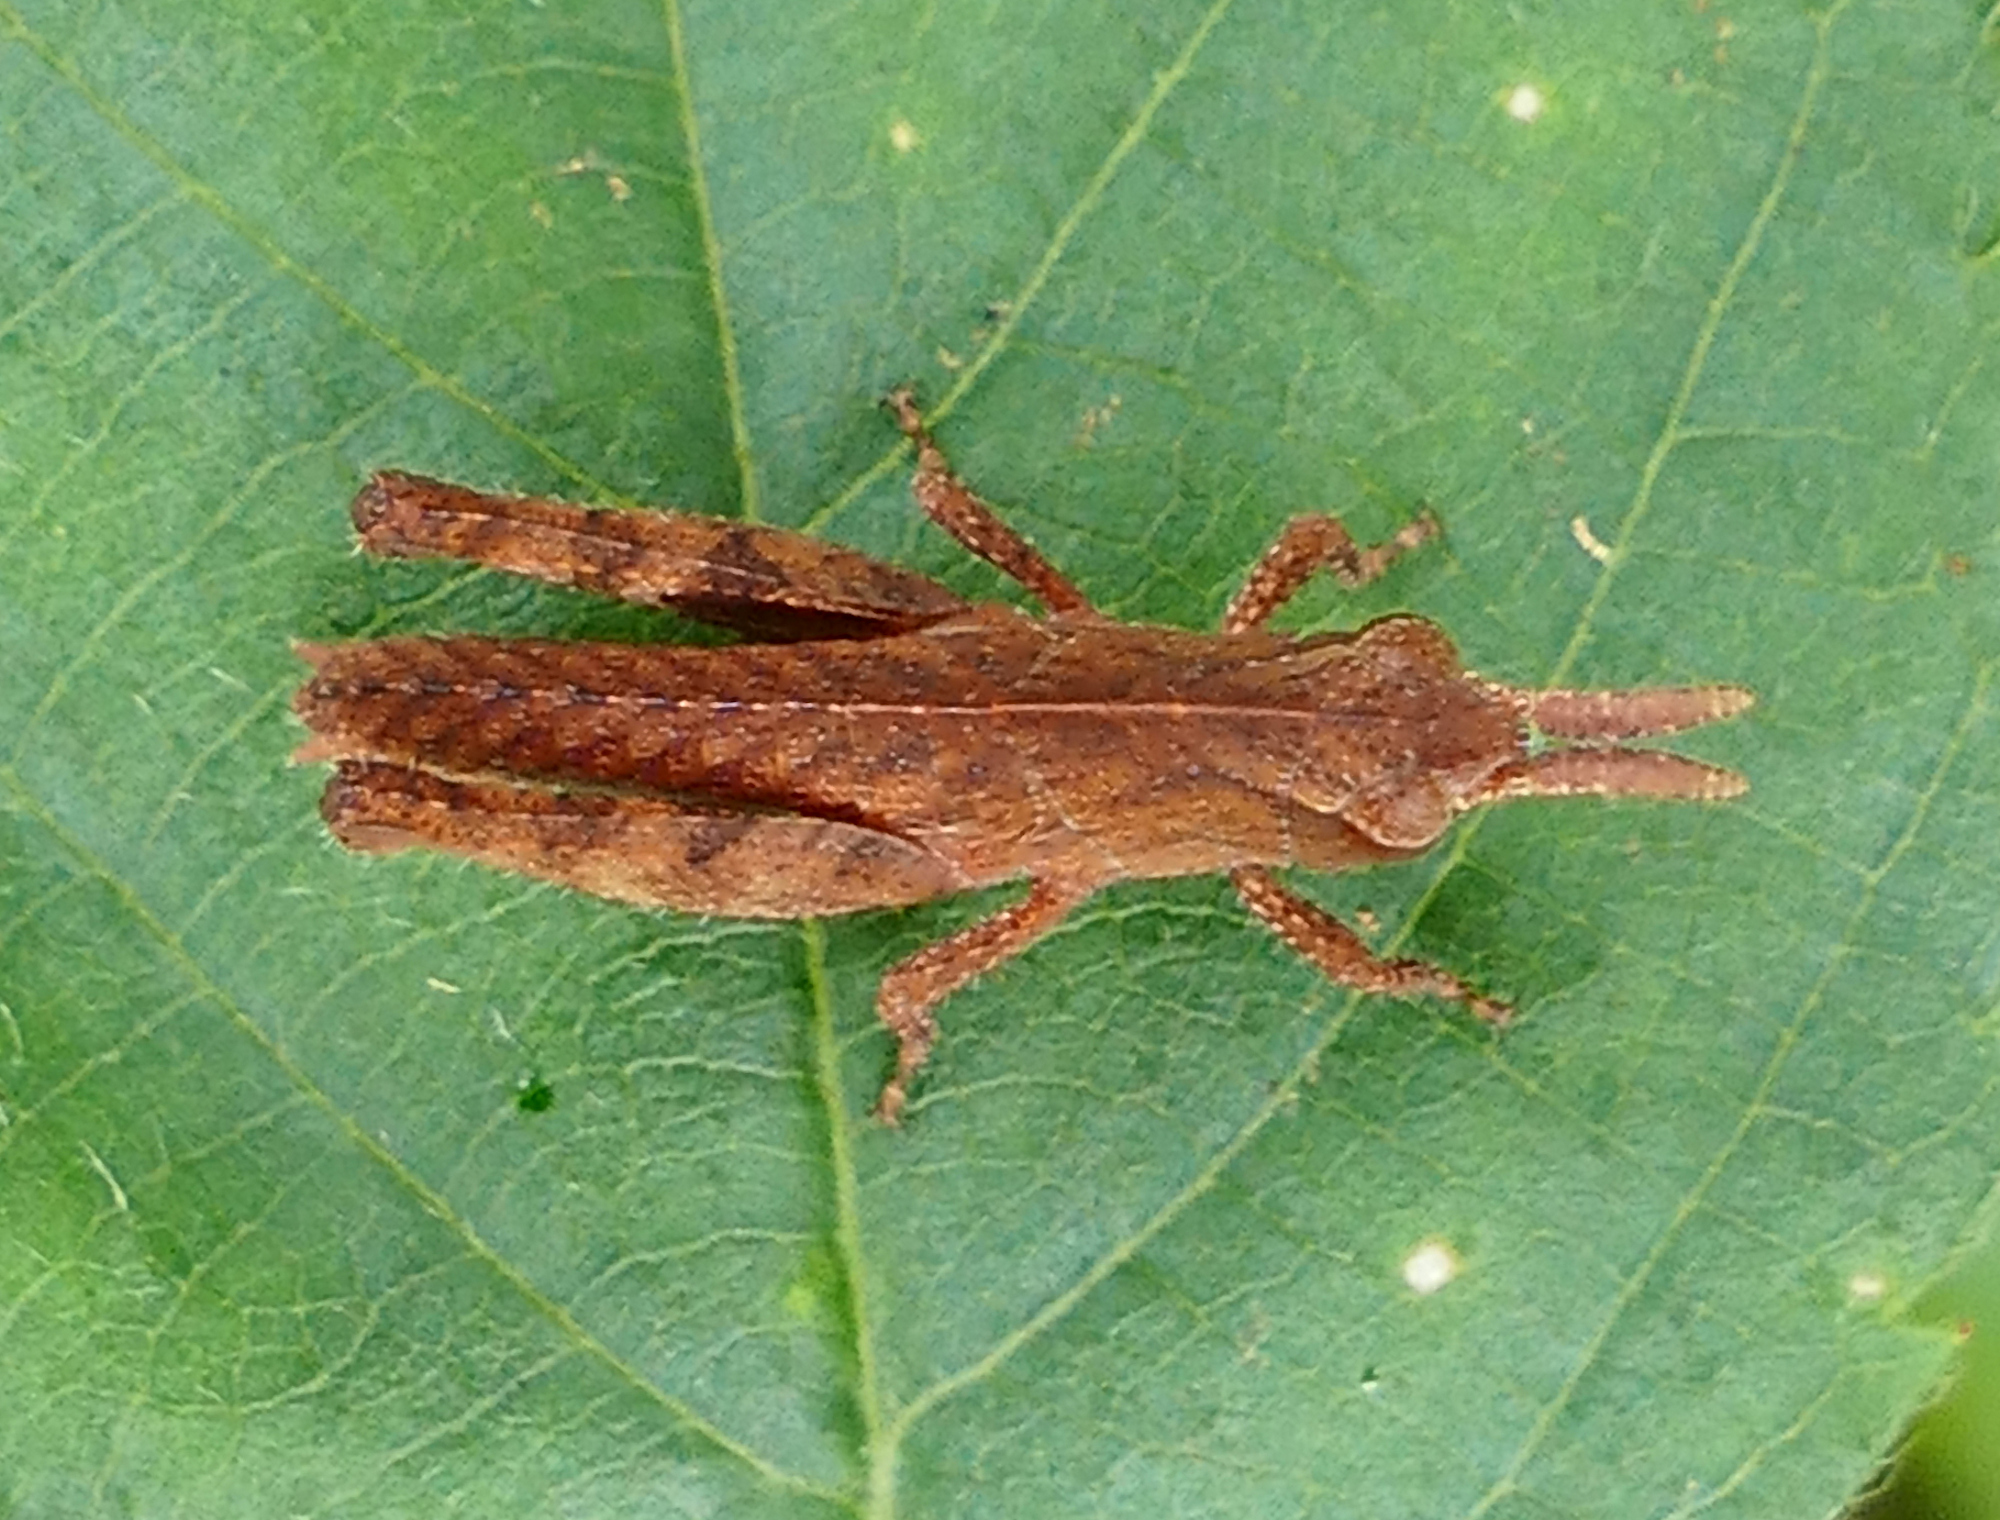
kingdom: Animalia
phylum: Arthropoda
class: Insecta
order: Orthoptera
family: Acrididae
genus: Chortophaga
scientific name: Chortophaga viridifasciata
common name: Green-striped grasshopper
